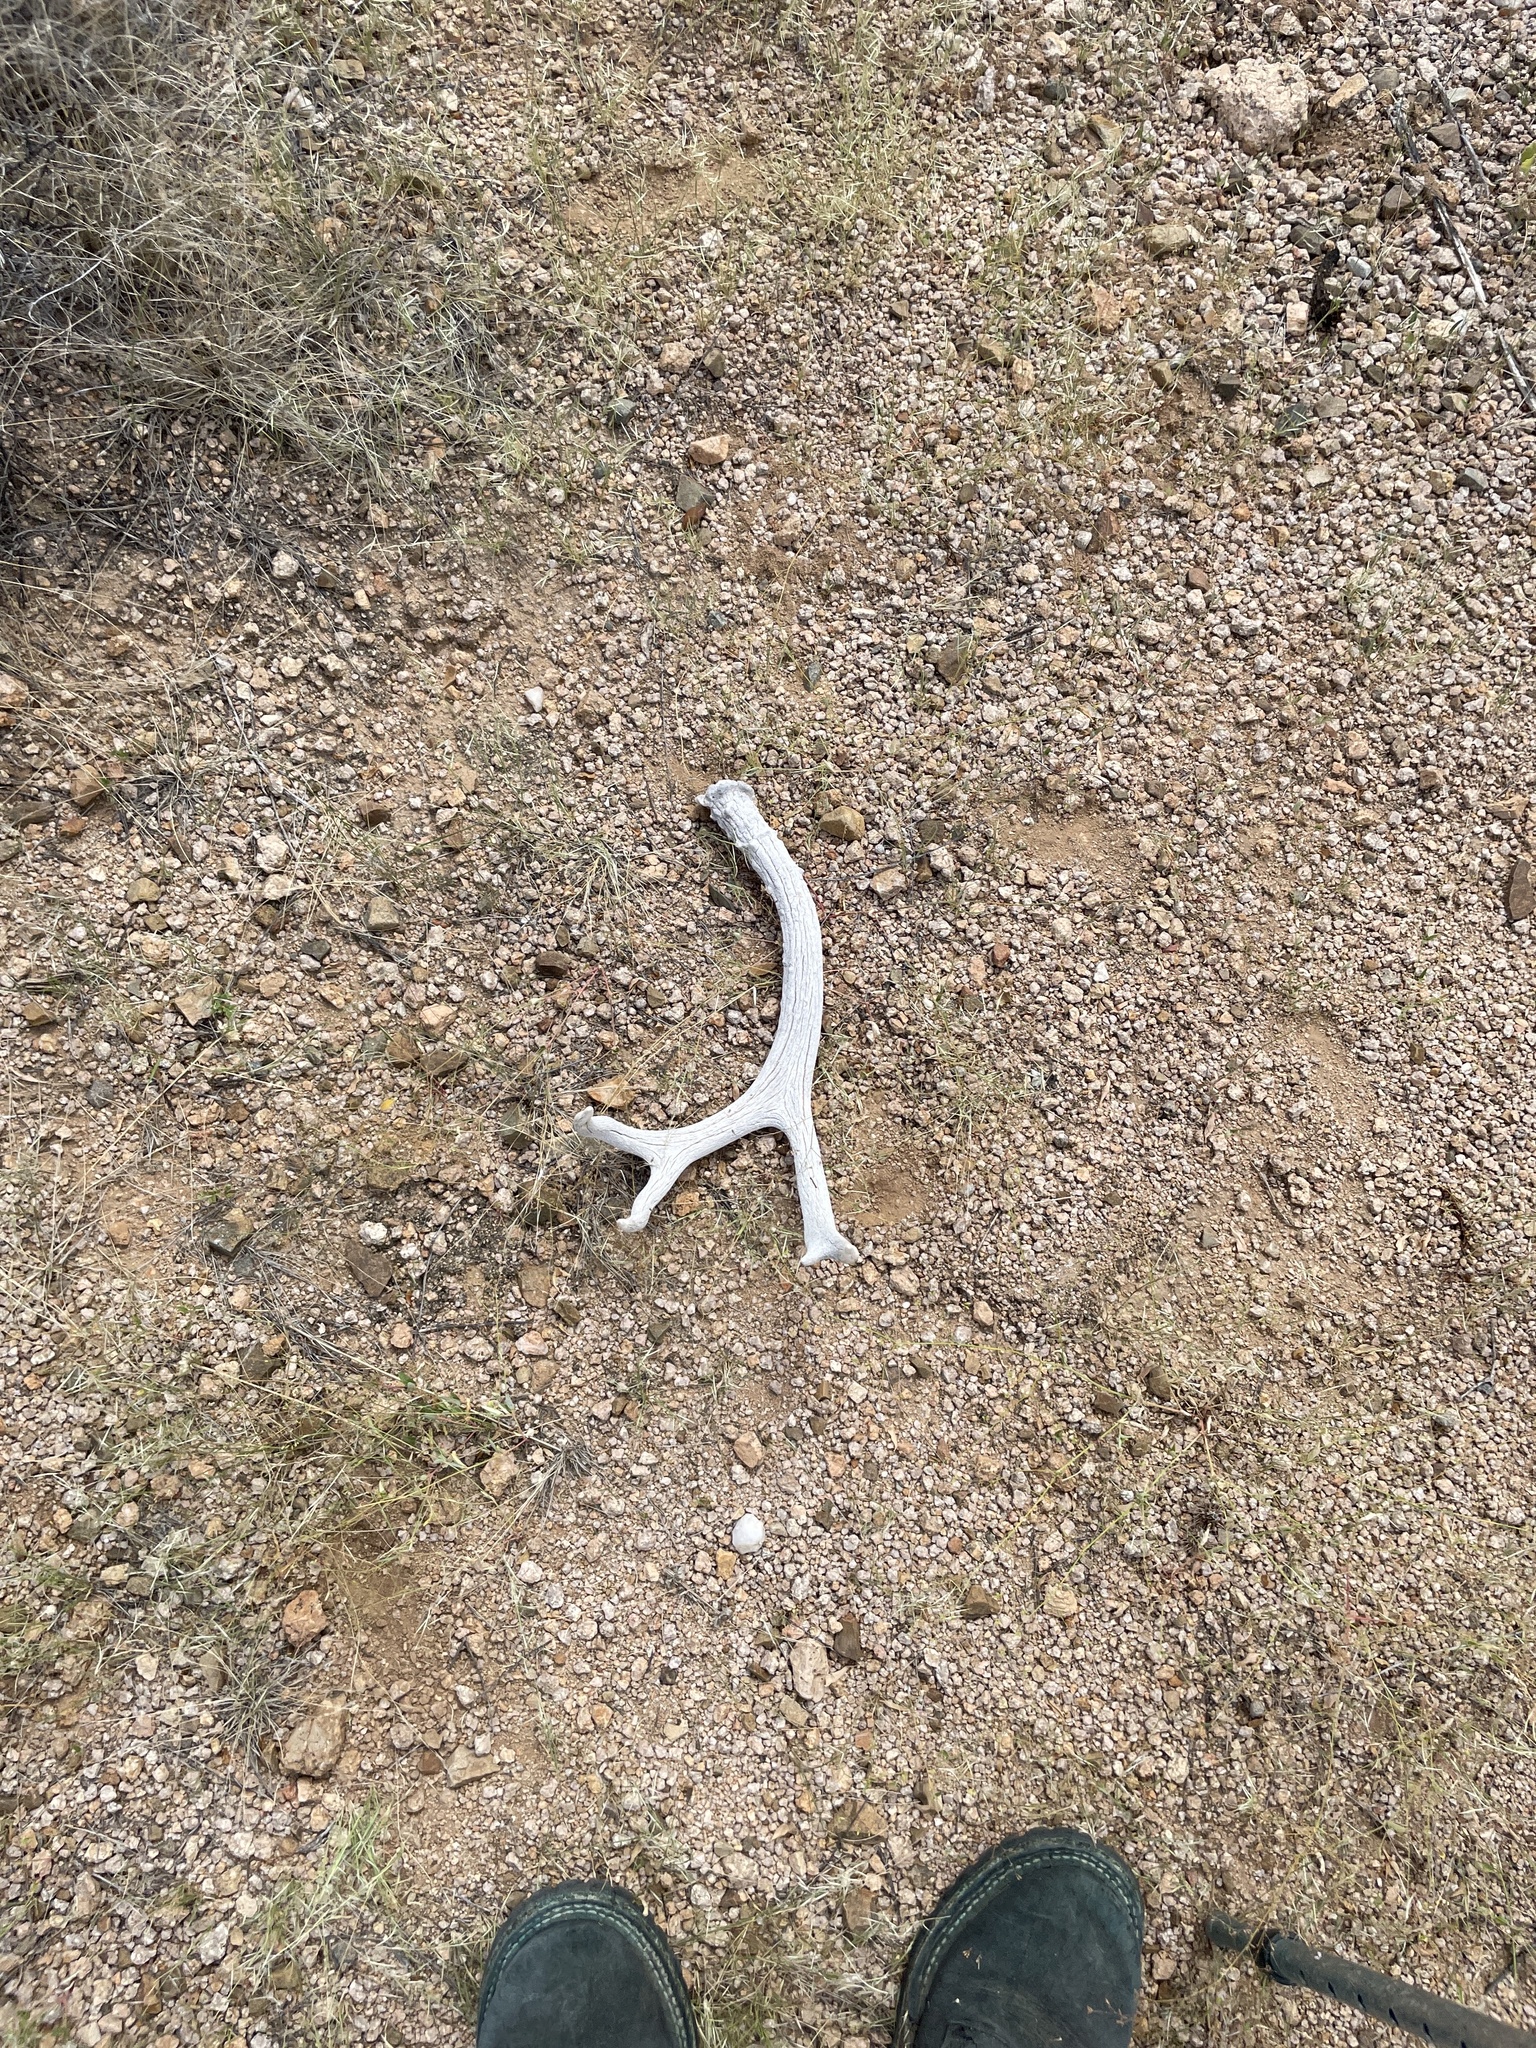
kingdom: Animalia
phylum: Chordata
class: Mammalia
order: Artiodactyla
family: Cervidae
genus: Odocoileus
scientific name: Odocoileus hemionus
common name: Mule deer
